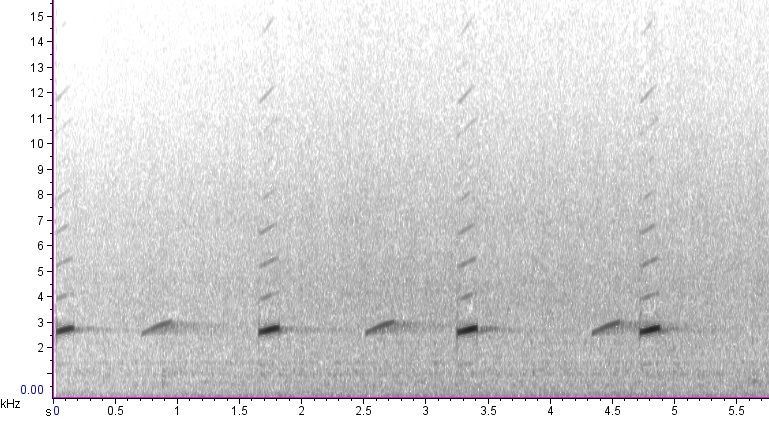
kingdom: Animalia
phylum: Chordata
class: Amphibia
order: Anura
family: Hylidae
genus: Pseudacris
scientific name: Pseudacris crucifer
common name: Spring peeper
